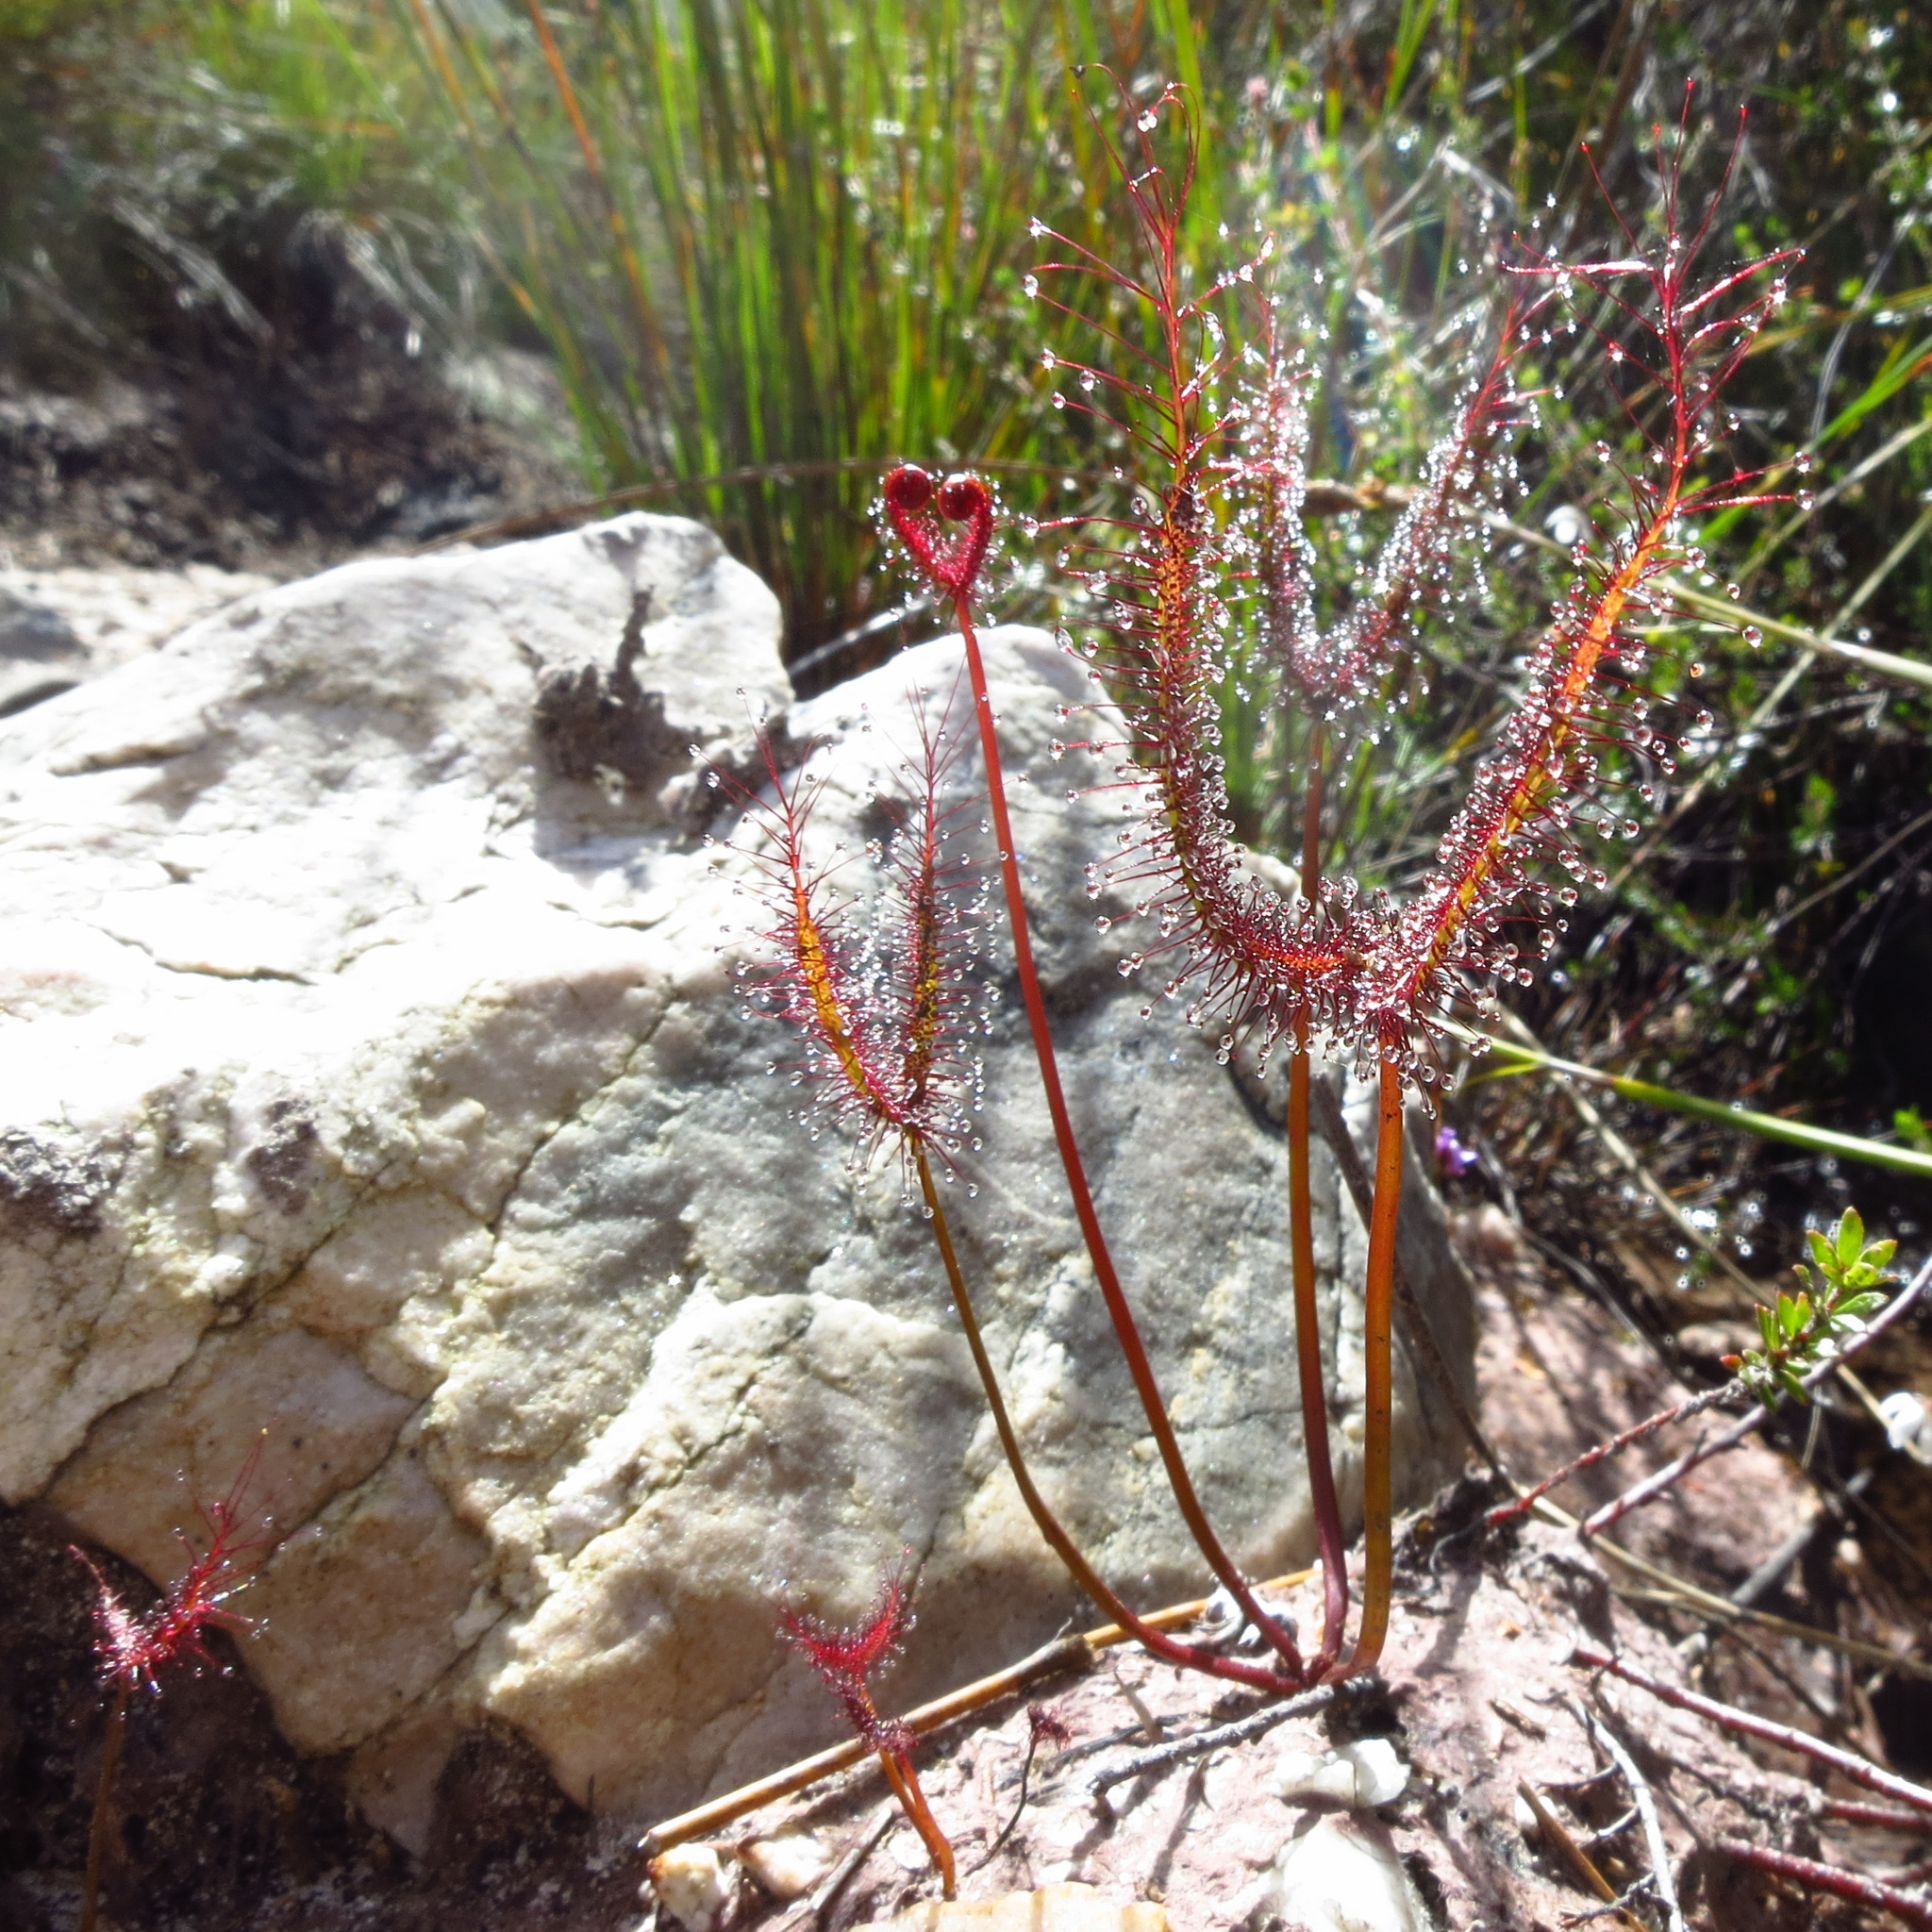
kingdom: Plantae
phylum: Tracheophyta
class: Magnoliopsida
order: Caryophyllales
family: Droseraceae
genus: Drosera
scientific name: Drosera binata
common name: Forked sundew
